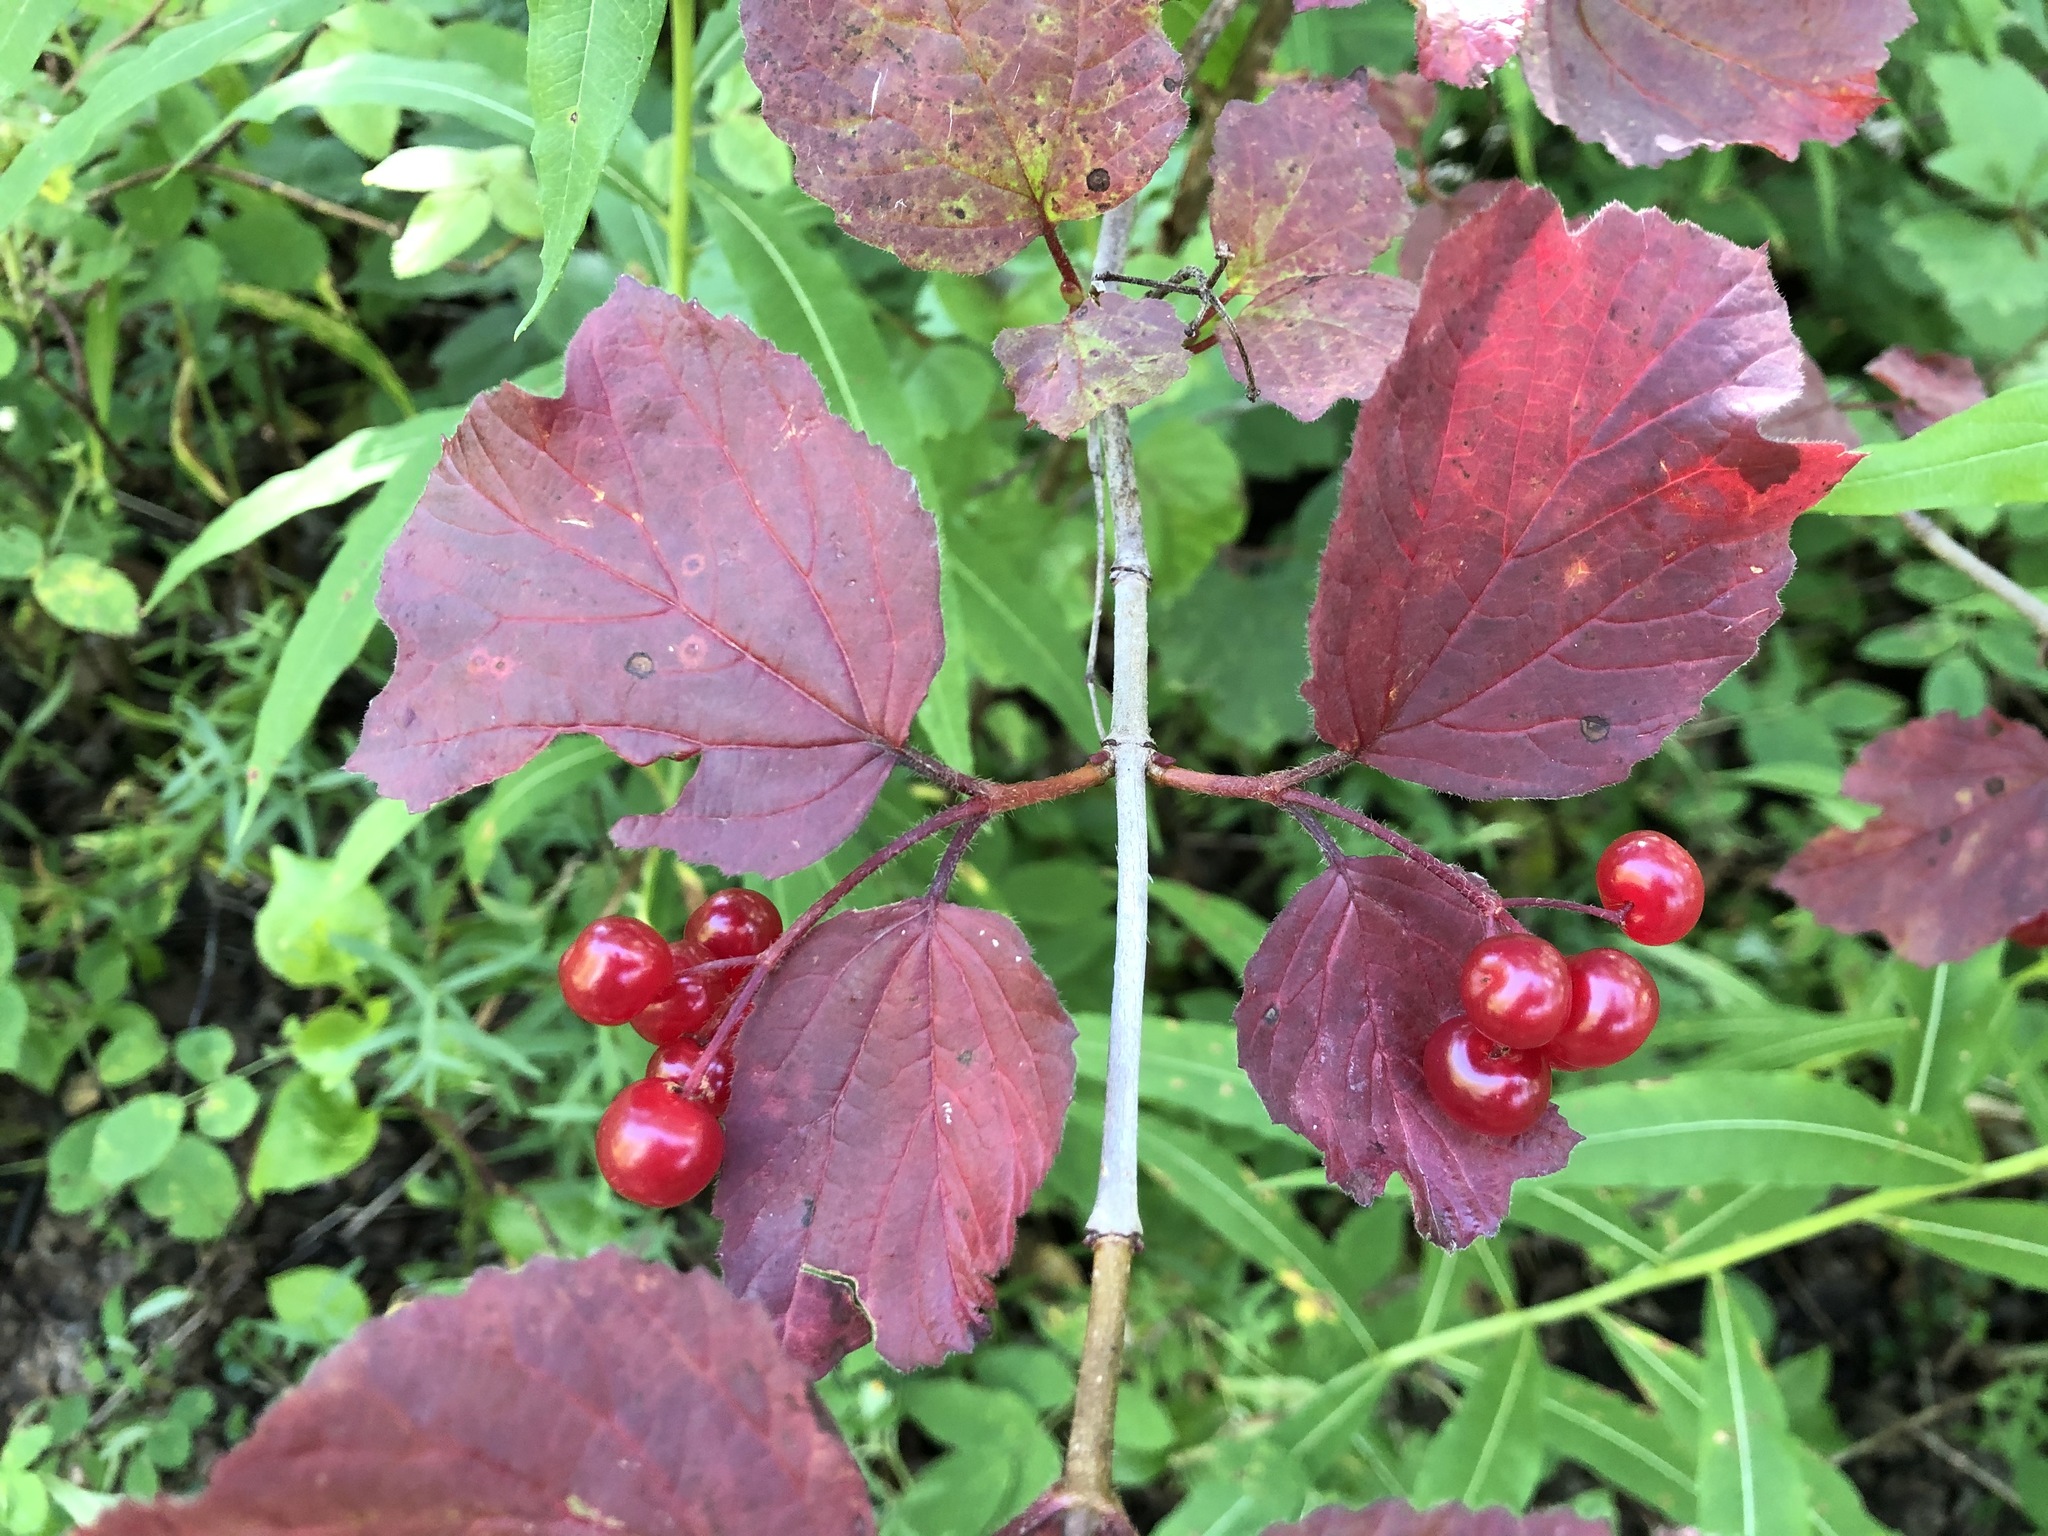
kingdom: Plantae
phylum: Tracheophyta
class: Magnoliopsida
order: Dipsacales
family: Viburnaceae
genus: Viburnum
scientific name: Viburnum edule
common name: Mooseberry
